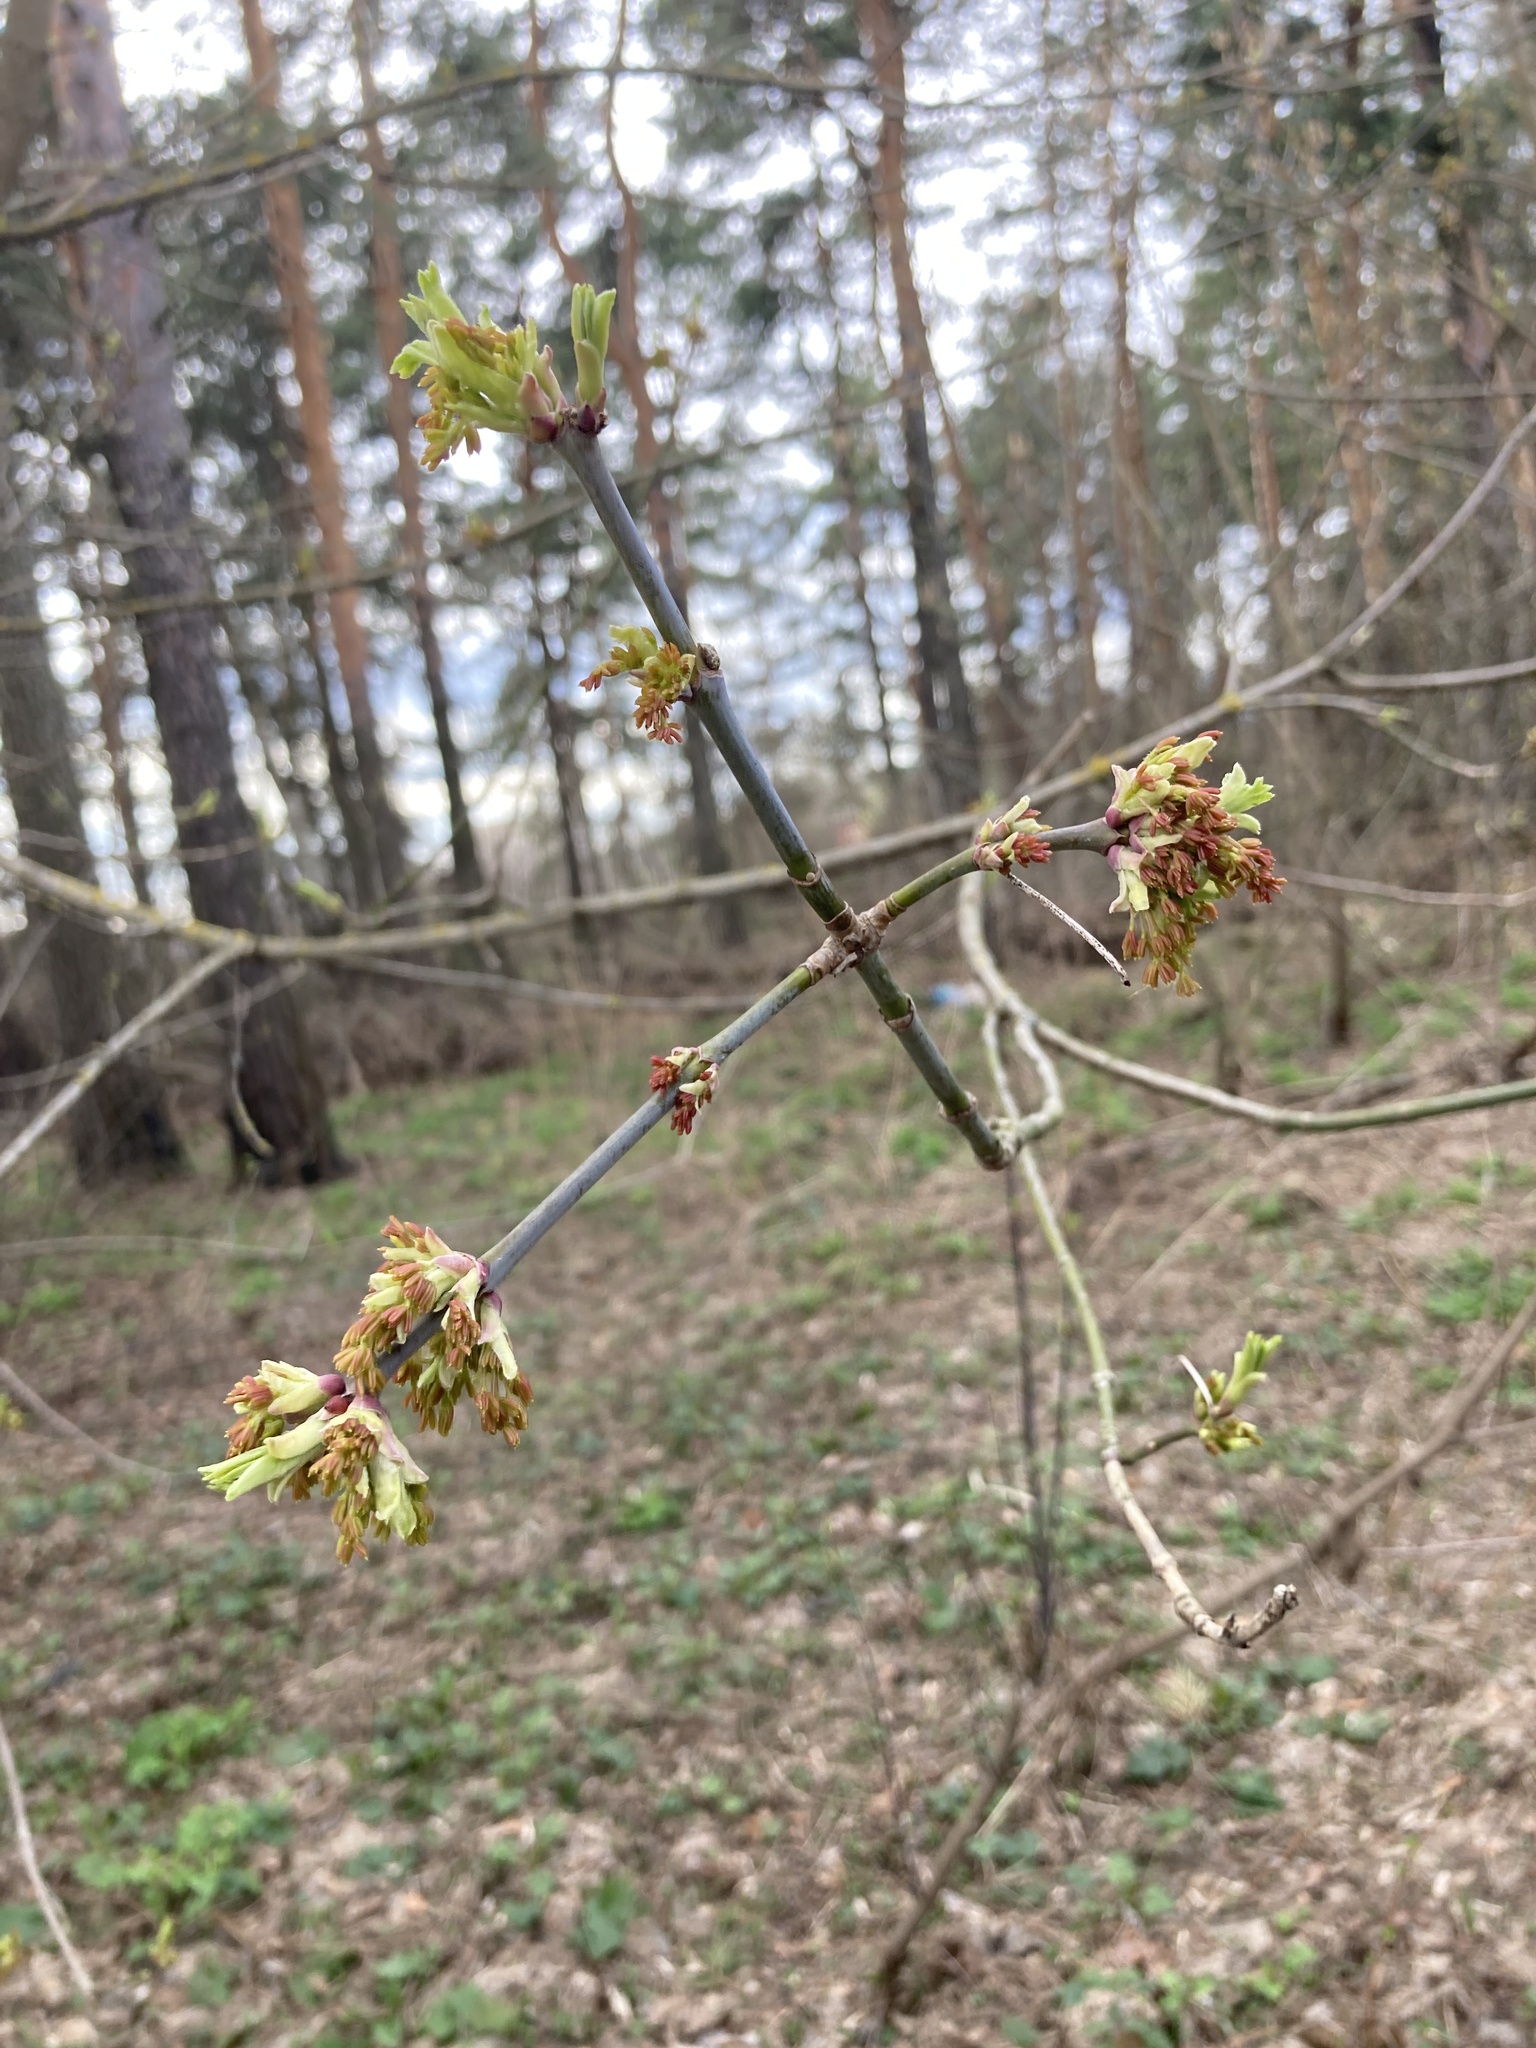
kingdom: Plantae
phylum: Tracheophyta
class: Magnoliopsida
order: Sapindales
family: Sapindaceae
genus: Acer
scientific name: Acer negundo
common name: Ashleaf maple
